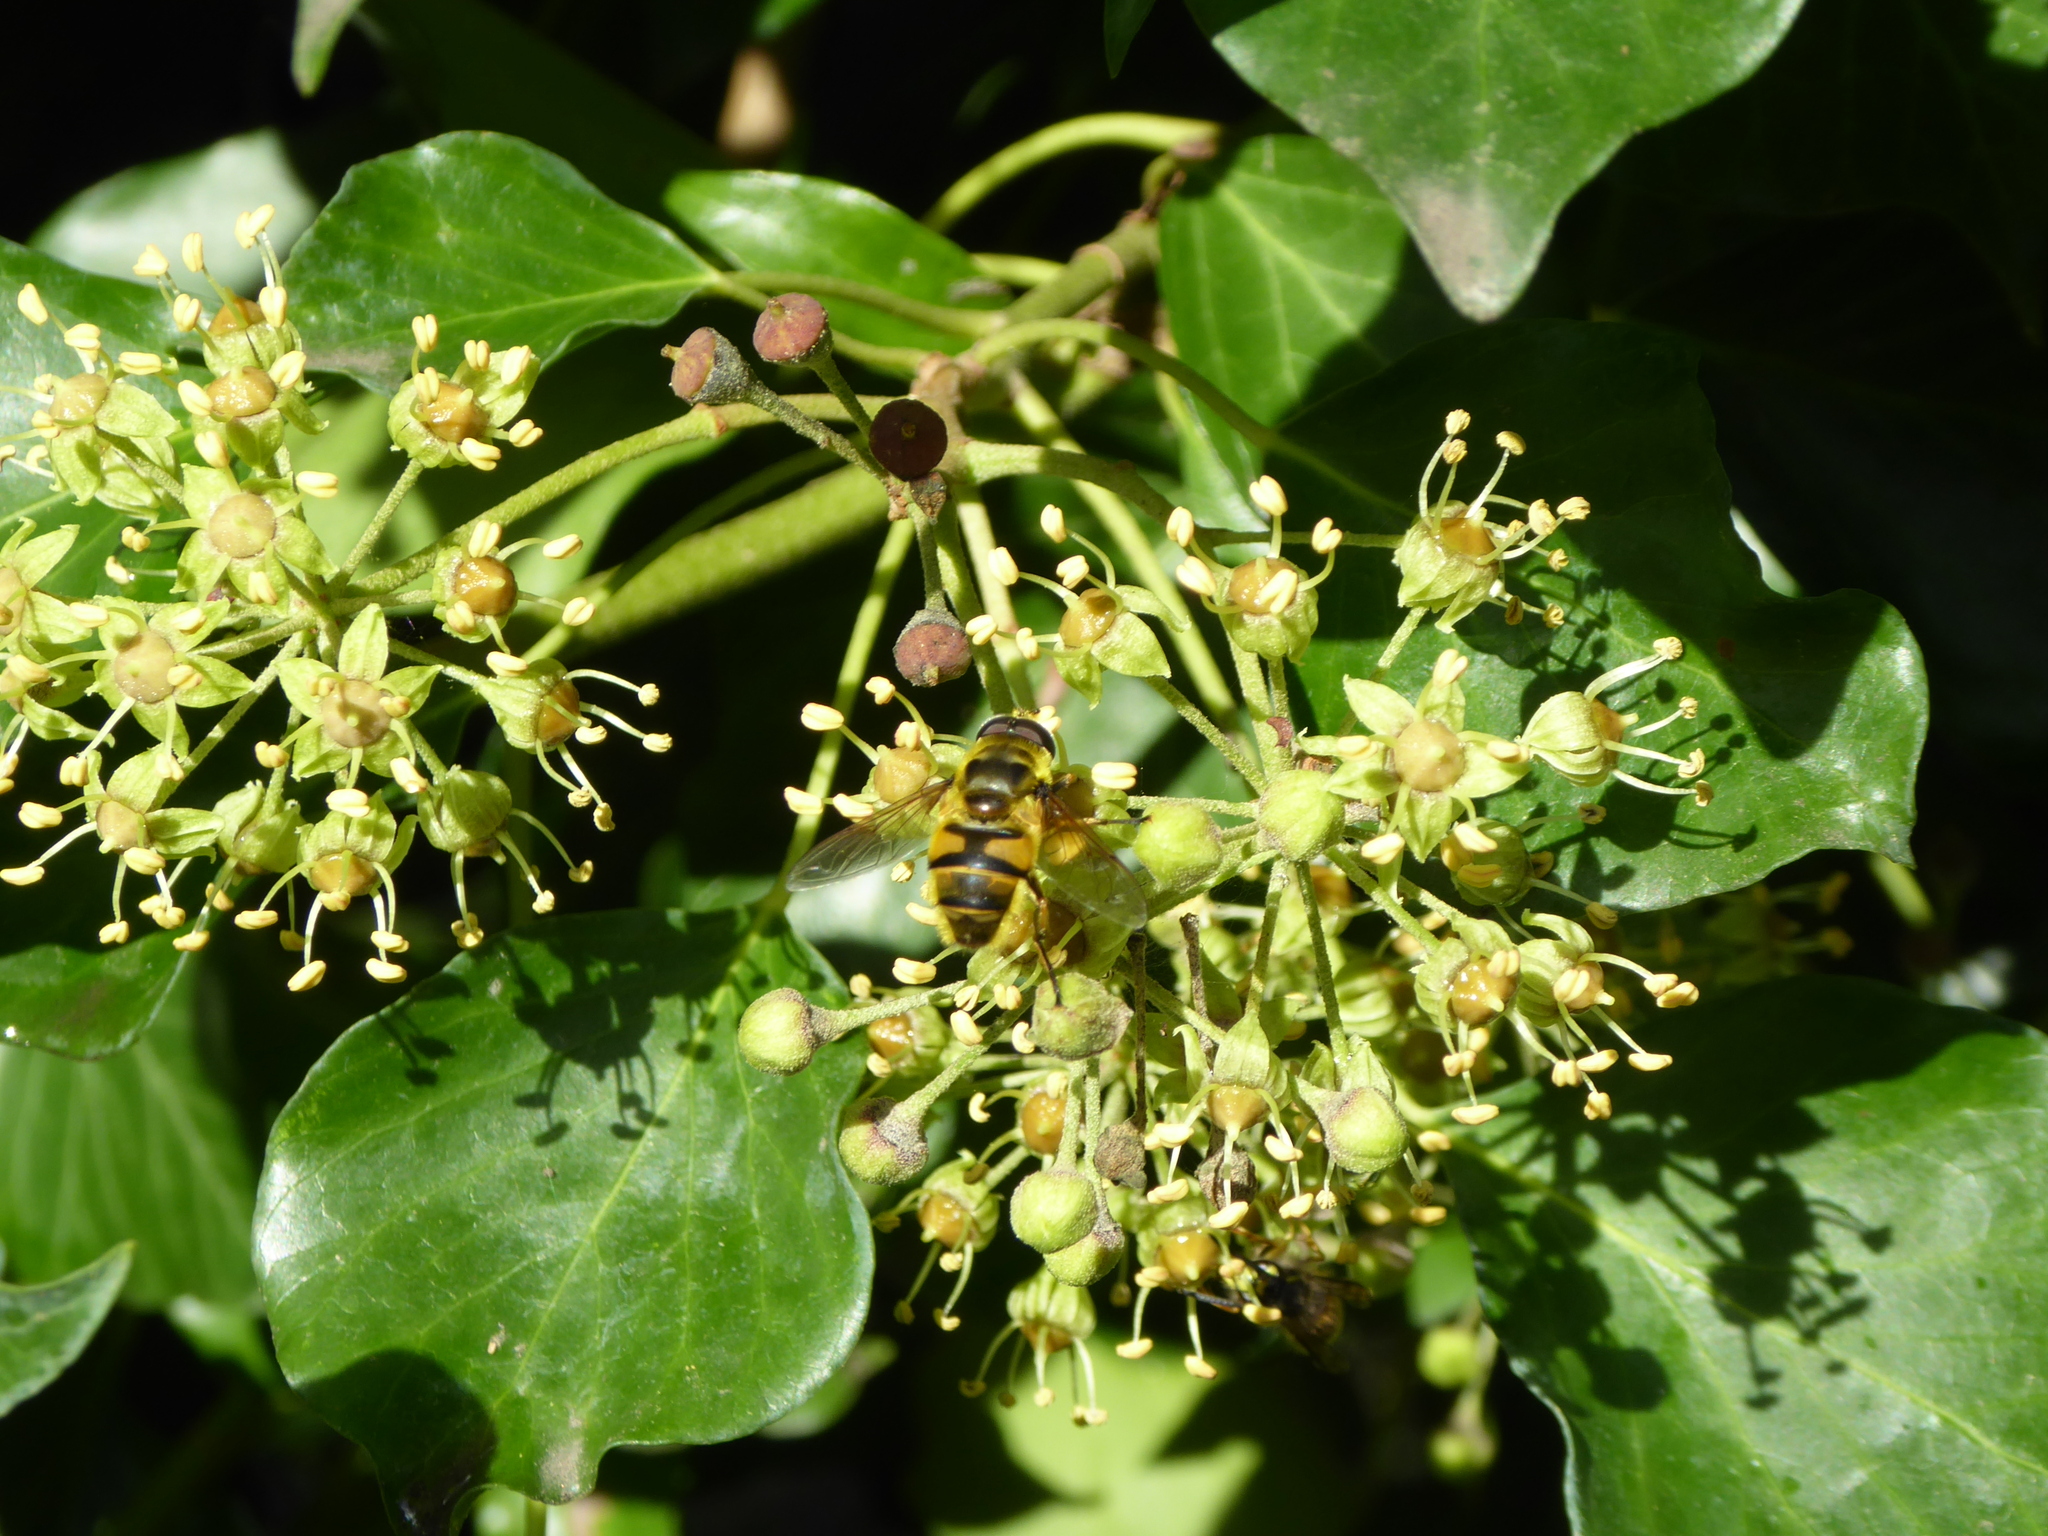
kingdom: Animalia
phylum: Arthropoda
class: Insecta
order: Diptera
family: Syrphidae
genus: Myathropa
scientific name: Myathropa florea
